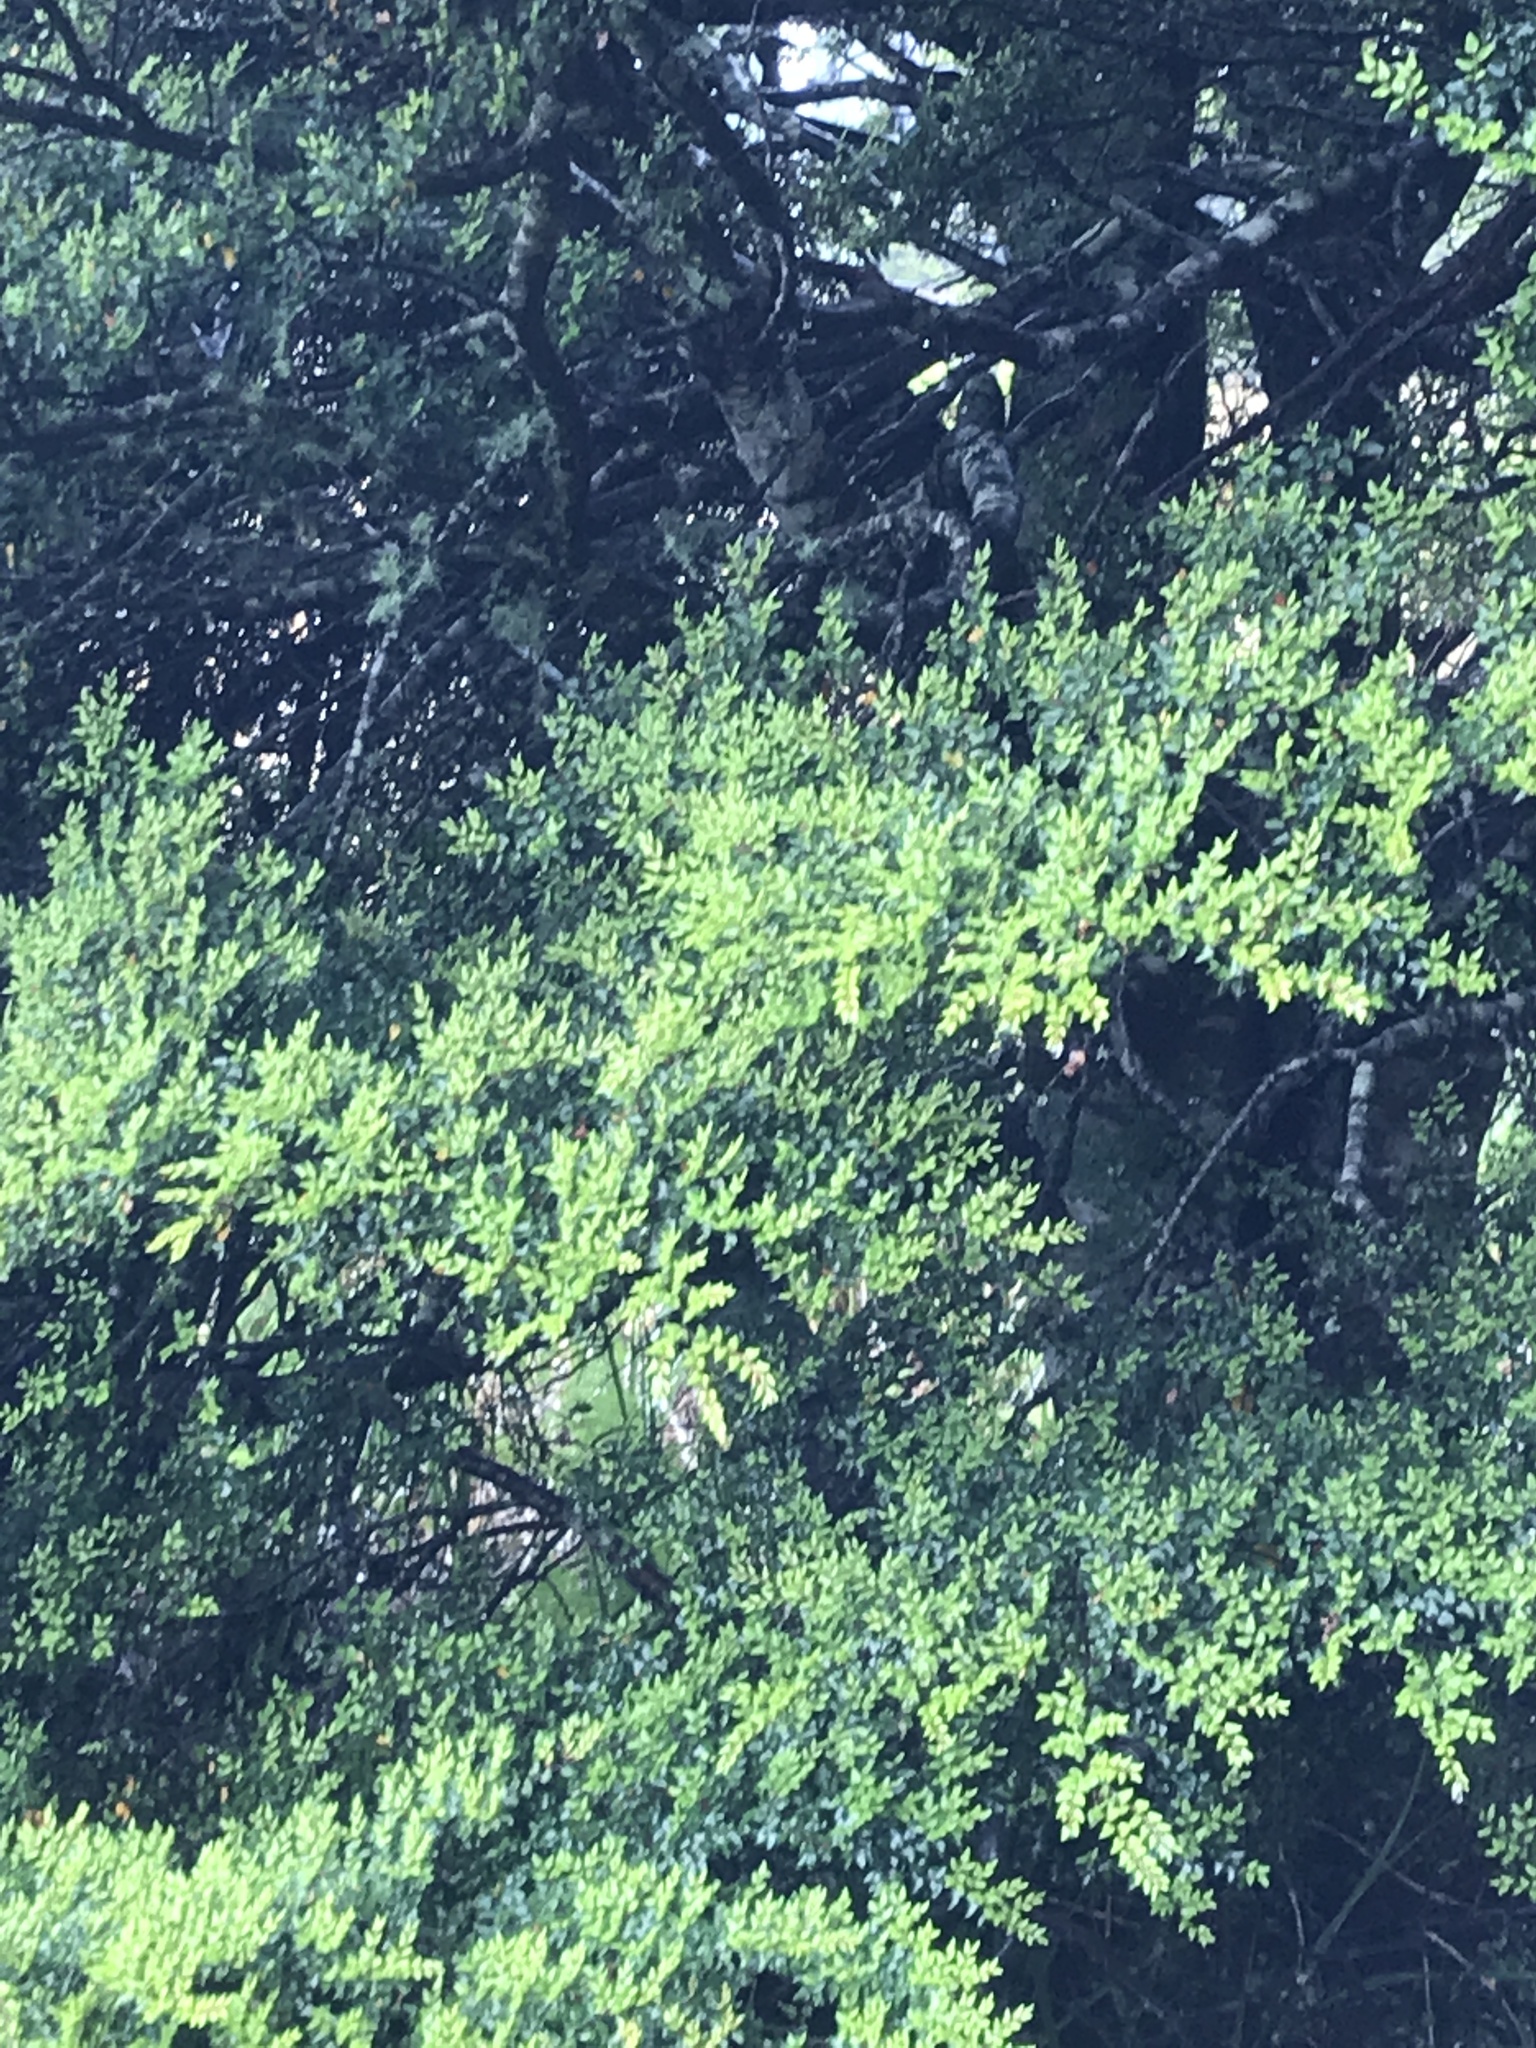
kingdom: Plantae
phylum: Tracheophyta
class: Magnoliopsida
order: Fagales
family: Nothofagaceae
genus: Nothofagus
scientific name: Nothofagus cliffortioides
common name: Mountain beech
